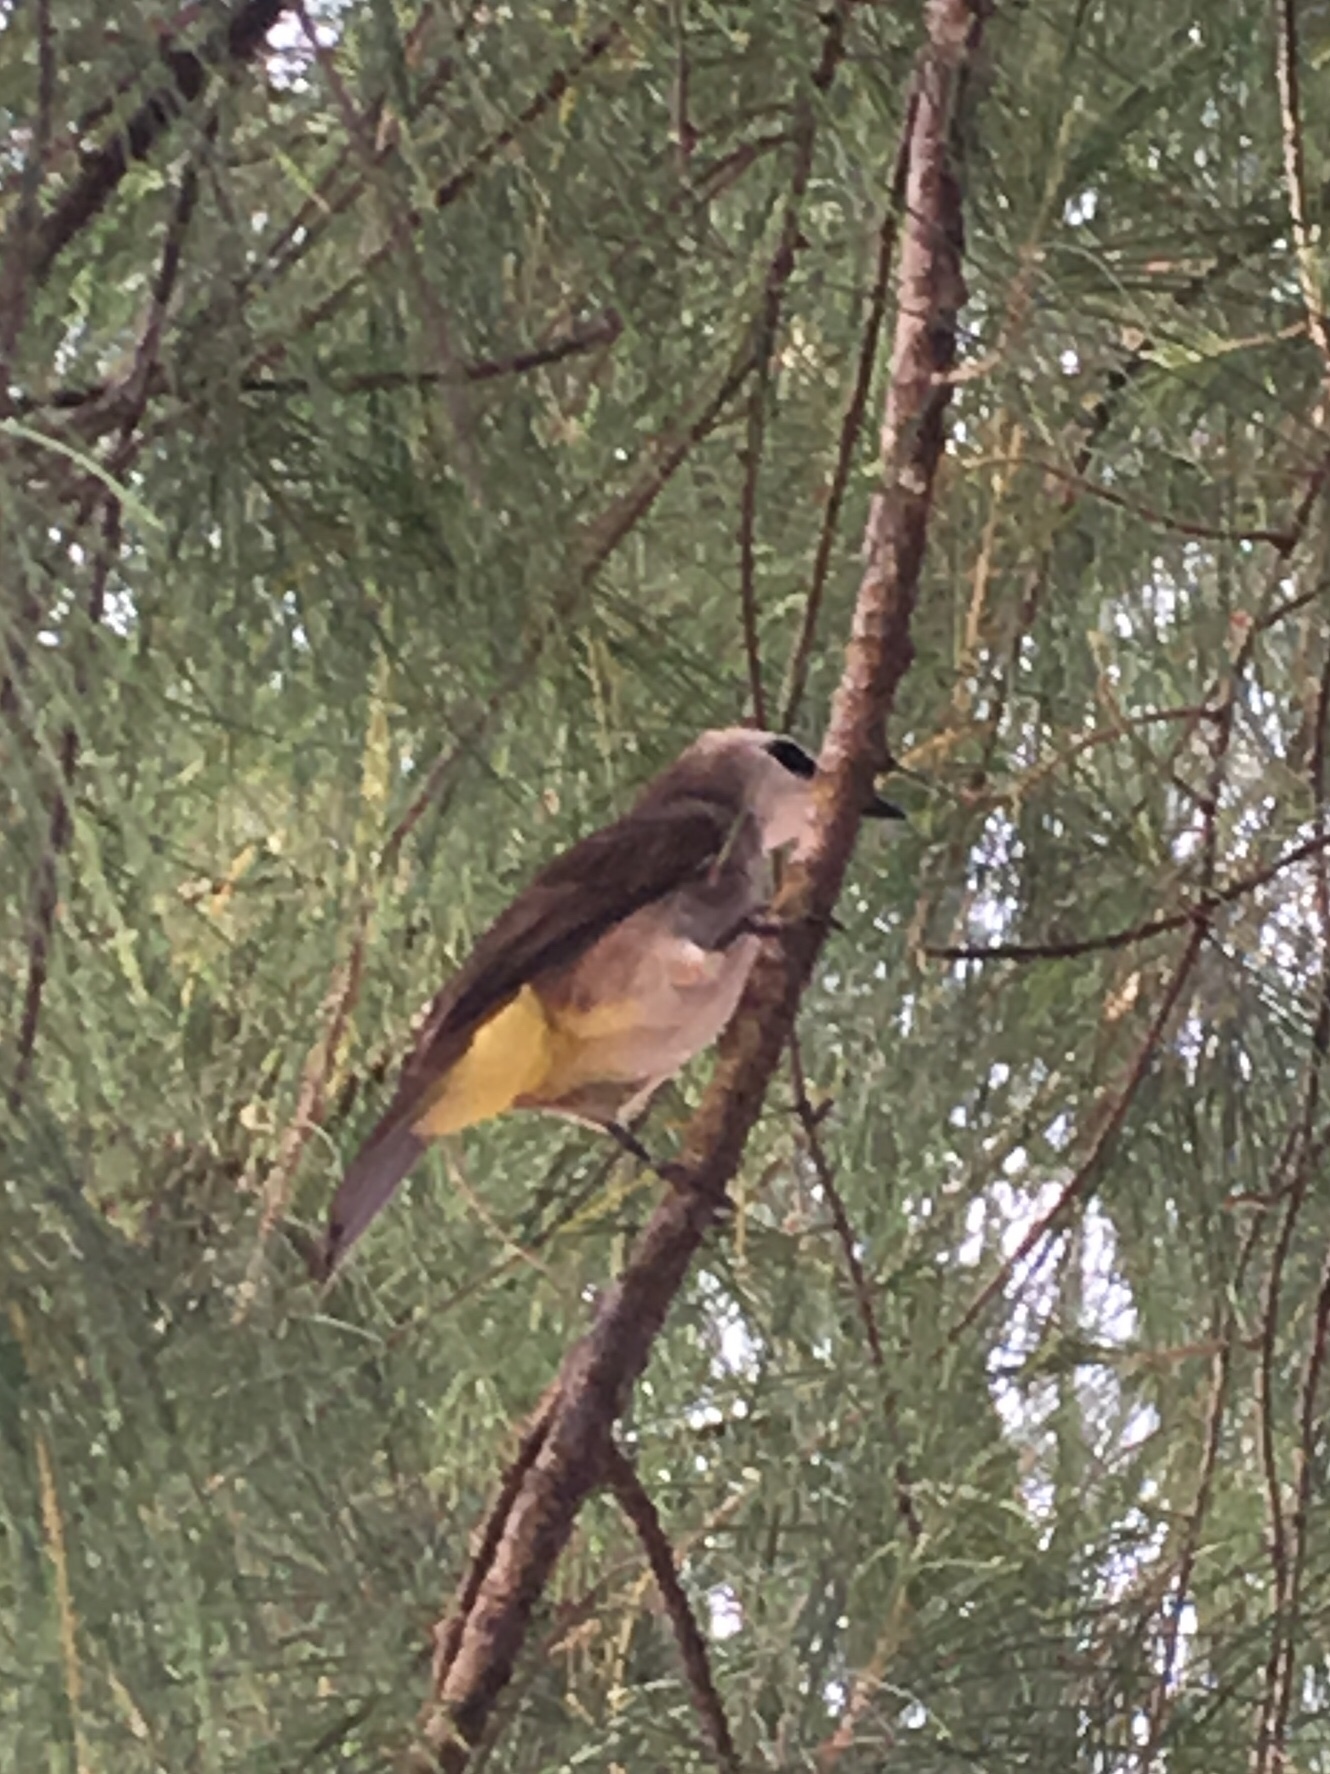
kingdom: Animalia
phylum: Chordata
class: Aves
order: Passeriformes
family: Pycnonotidae
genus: Pycnonotus
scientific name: Pycnonotus goiavier
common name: Yellow-vented bulbul
